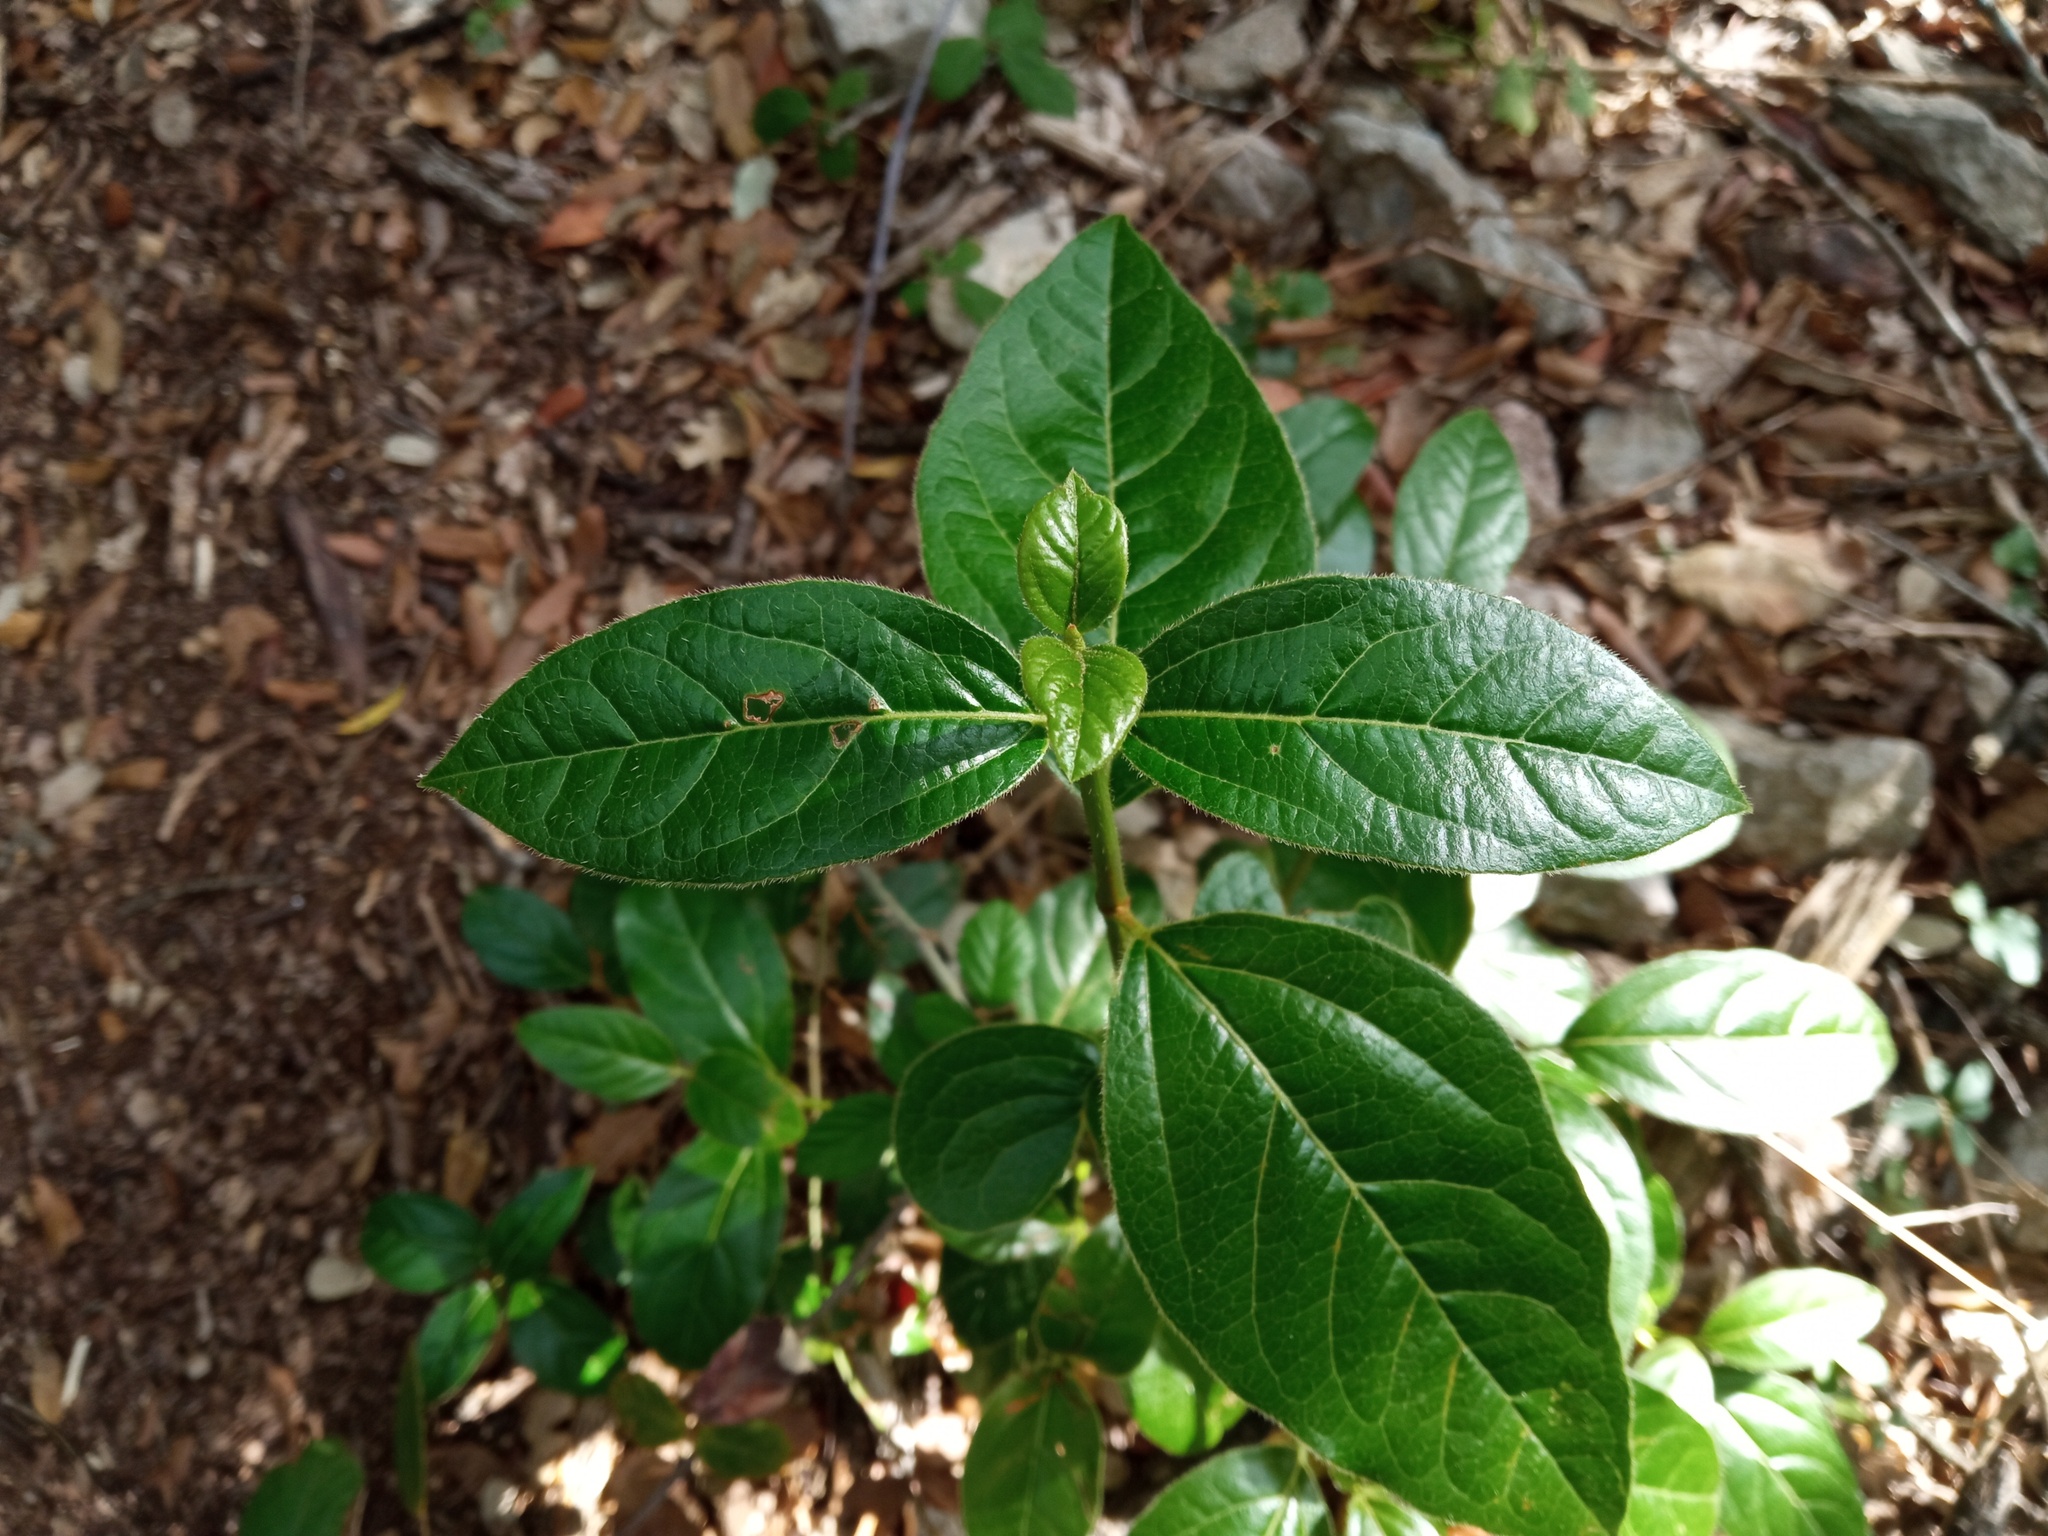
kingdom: Plantae
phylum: Tracheophyta
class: Magnoliopsida
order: Dipsacales
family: Viburnaceae
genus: Viburnum
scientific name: Viburnum tinus
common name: Laurustinus
